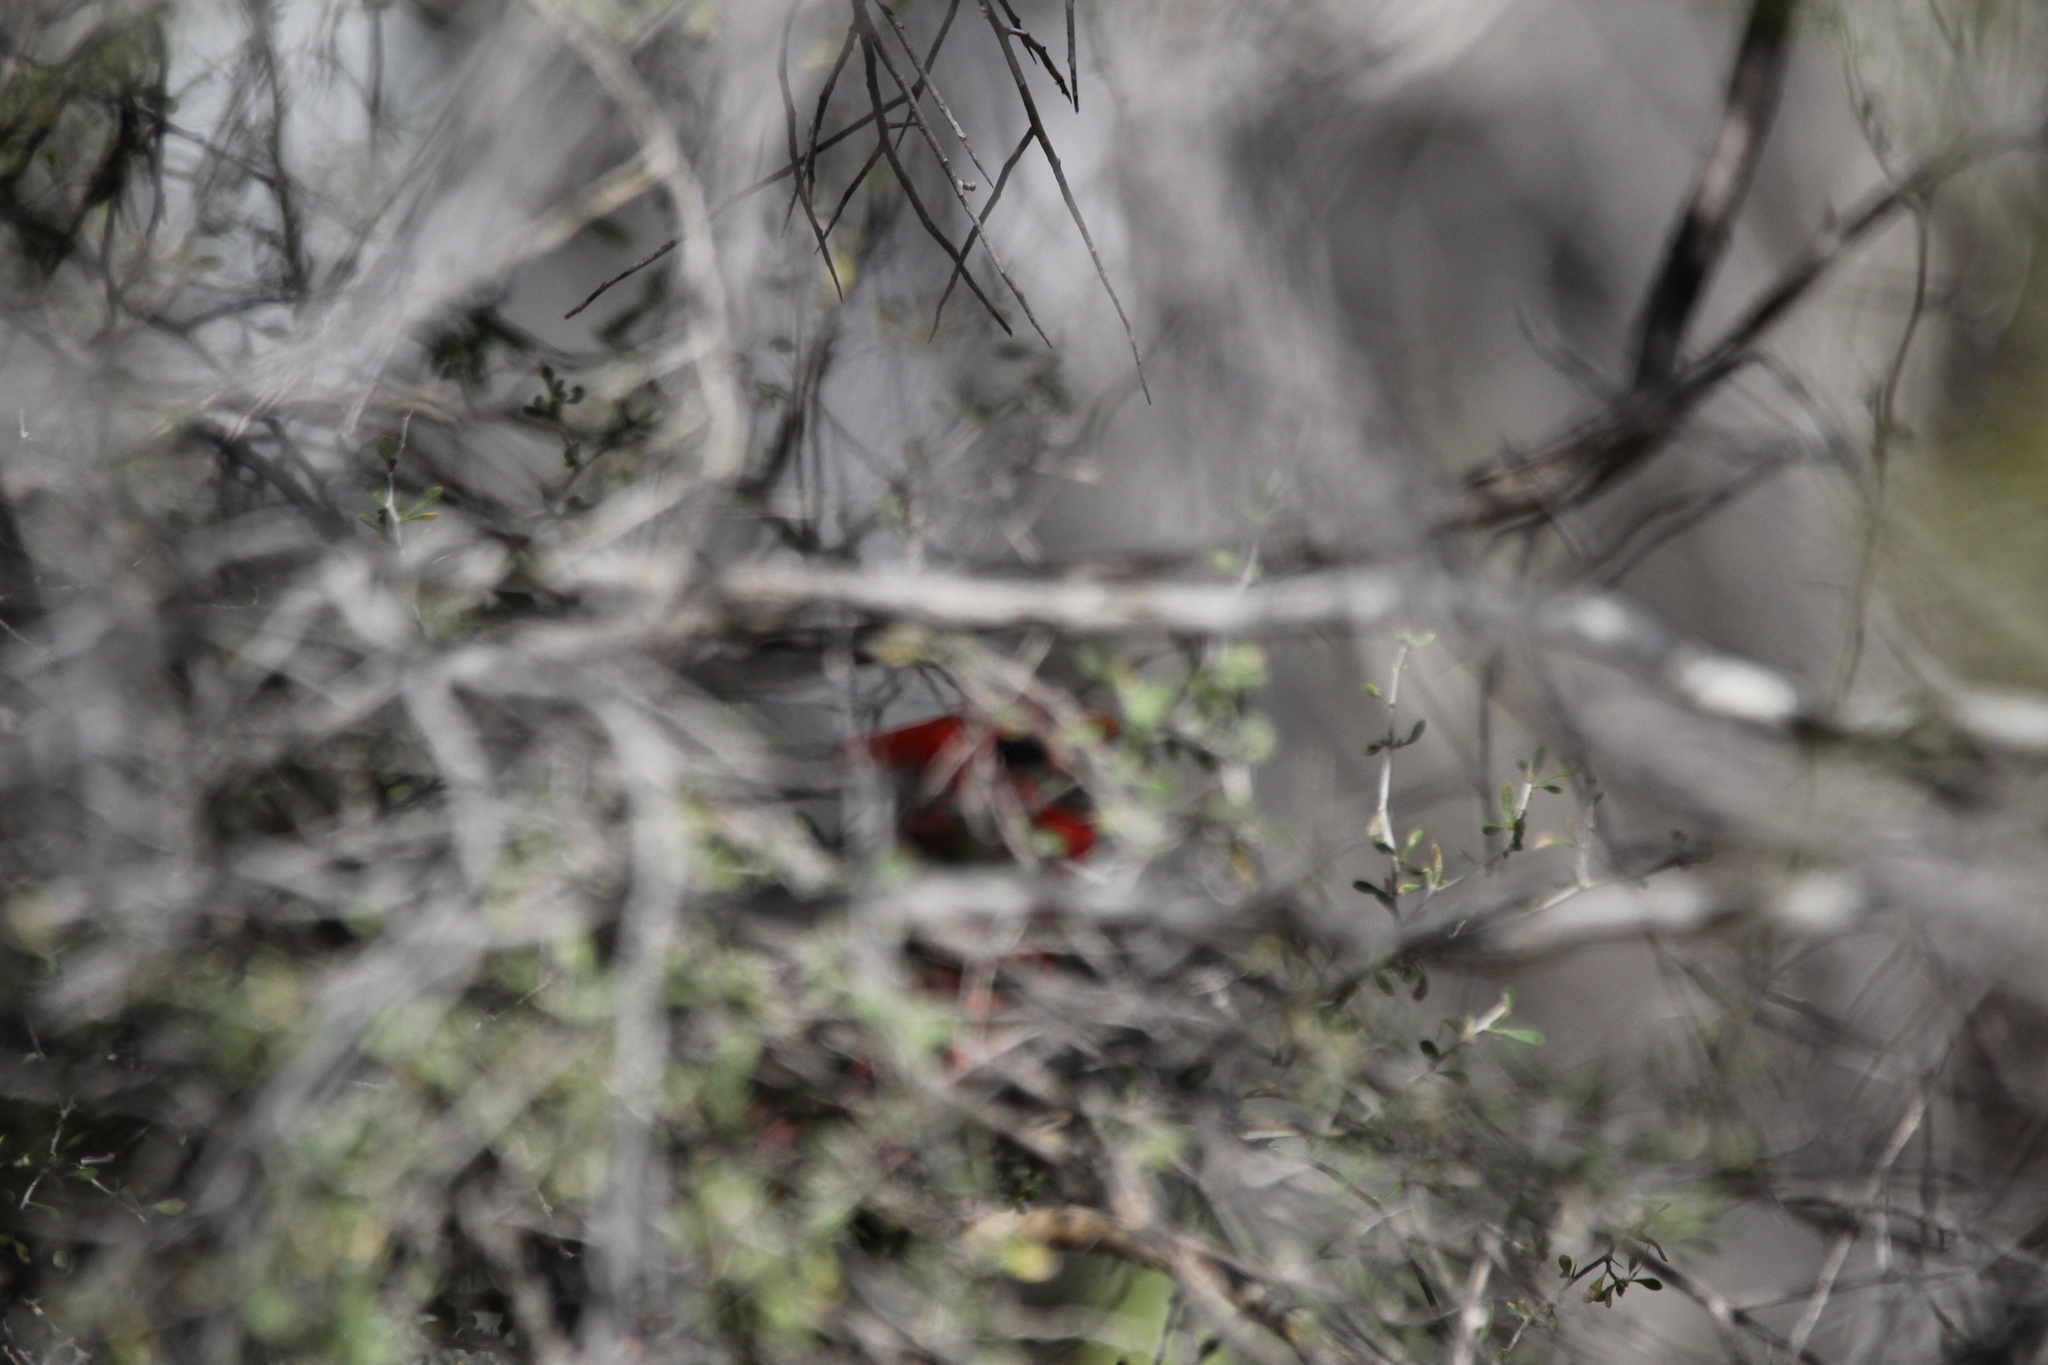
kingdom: Animalia
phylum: Chordata
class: Aves
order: Passeriformes
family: Cardinalidae
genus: Cardinalis
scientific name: Cardinalis cardinalis
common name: Northern cardinal
